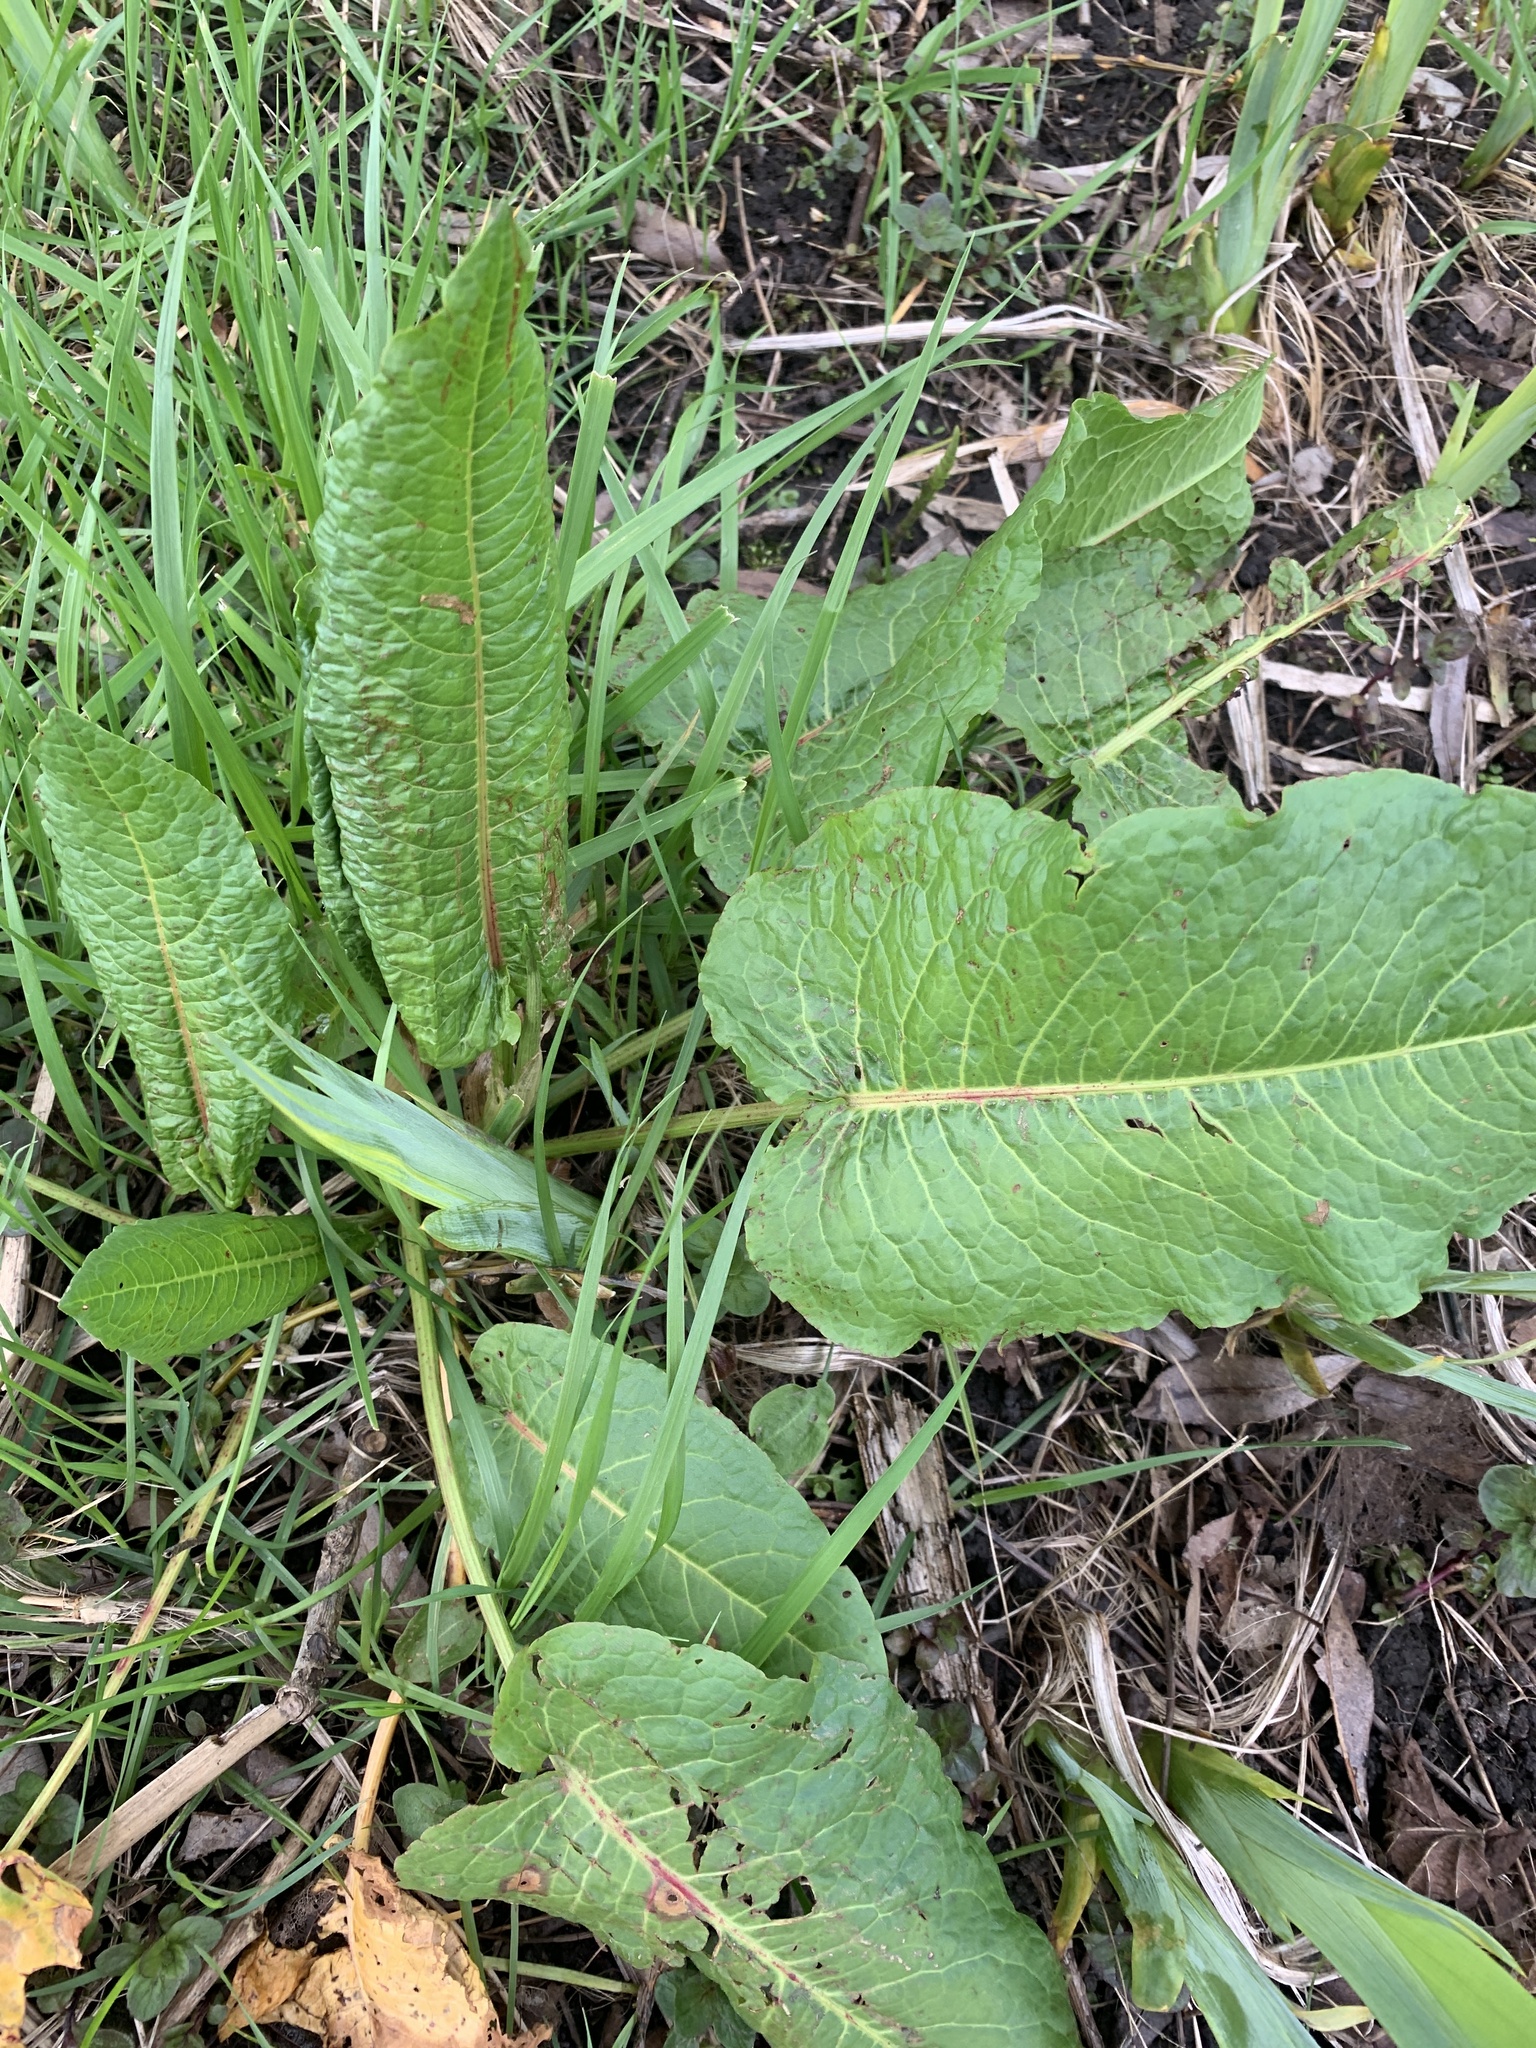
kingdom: Plantae
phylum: Tracheophyta
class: Magnoliopsida
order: Caryophyllales
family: Polygonaceae
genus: Rumex
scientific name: Rumex obtusifolius
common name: Bitter dock
